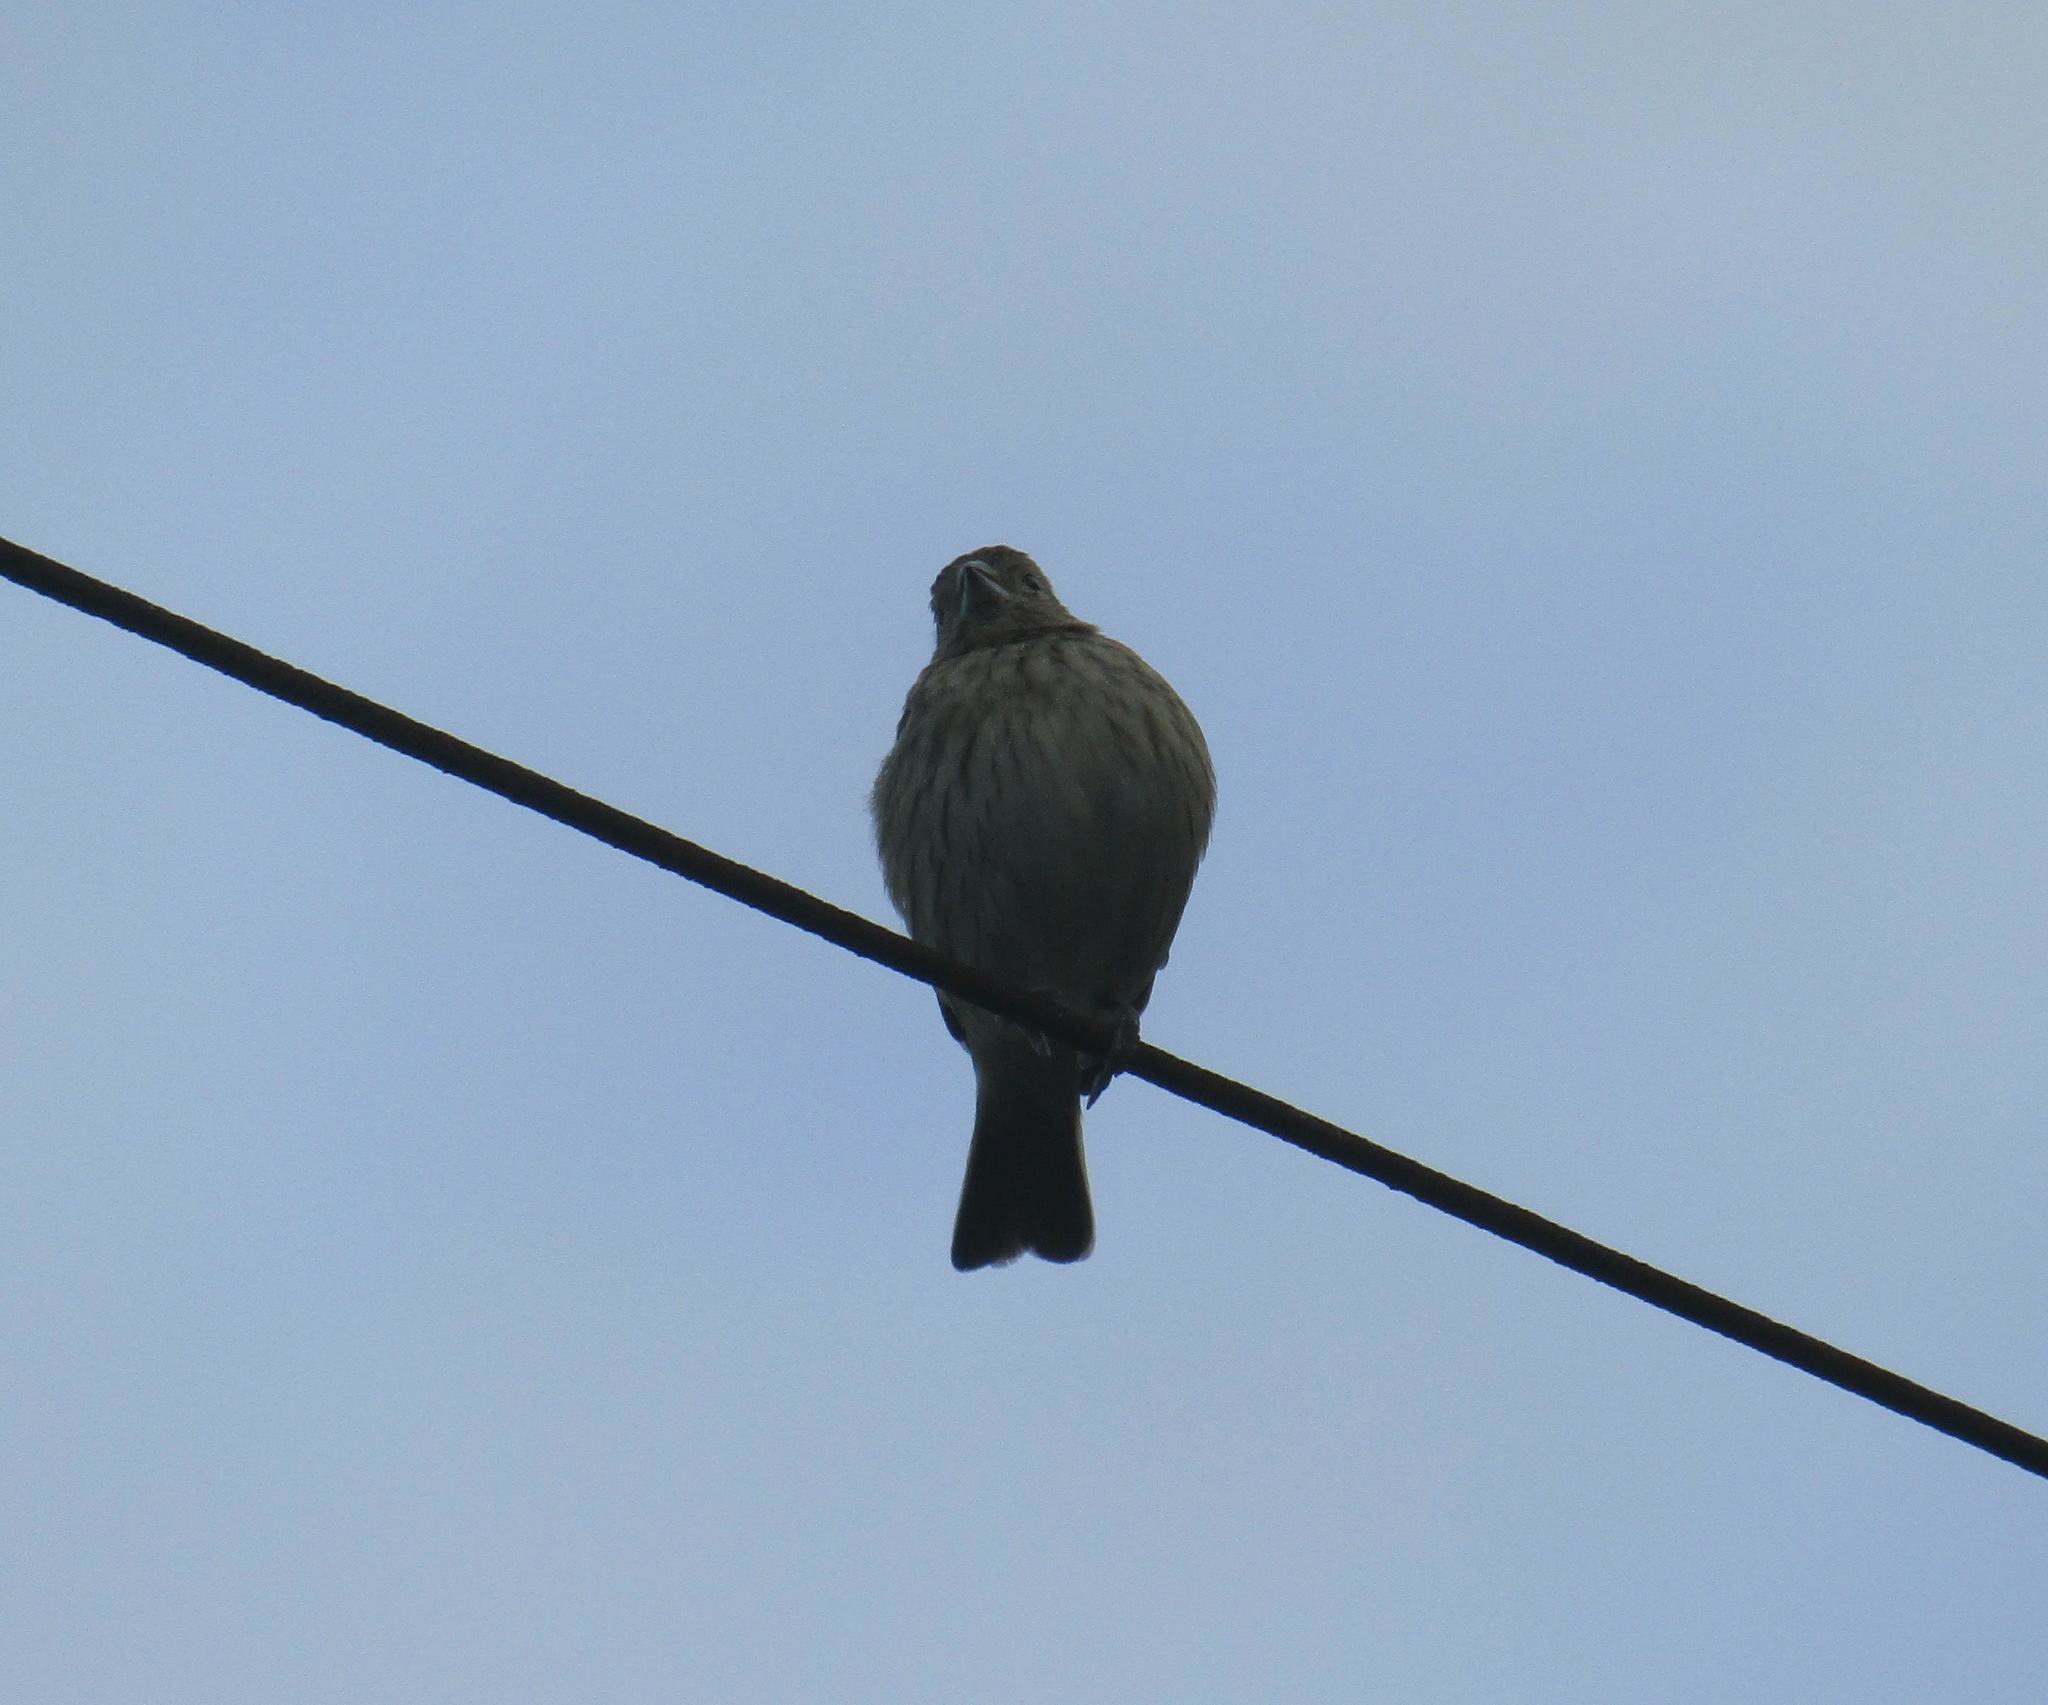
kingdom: Animalia
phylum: Chordata
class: Aves
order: Passeriformes
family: Thraupidae
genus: Sicalis
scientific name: Sicalis flaveola
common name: Saffron finch
